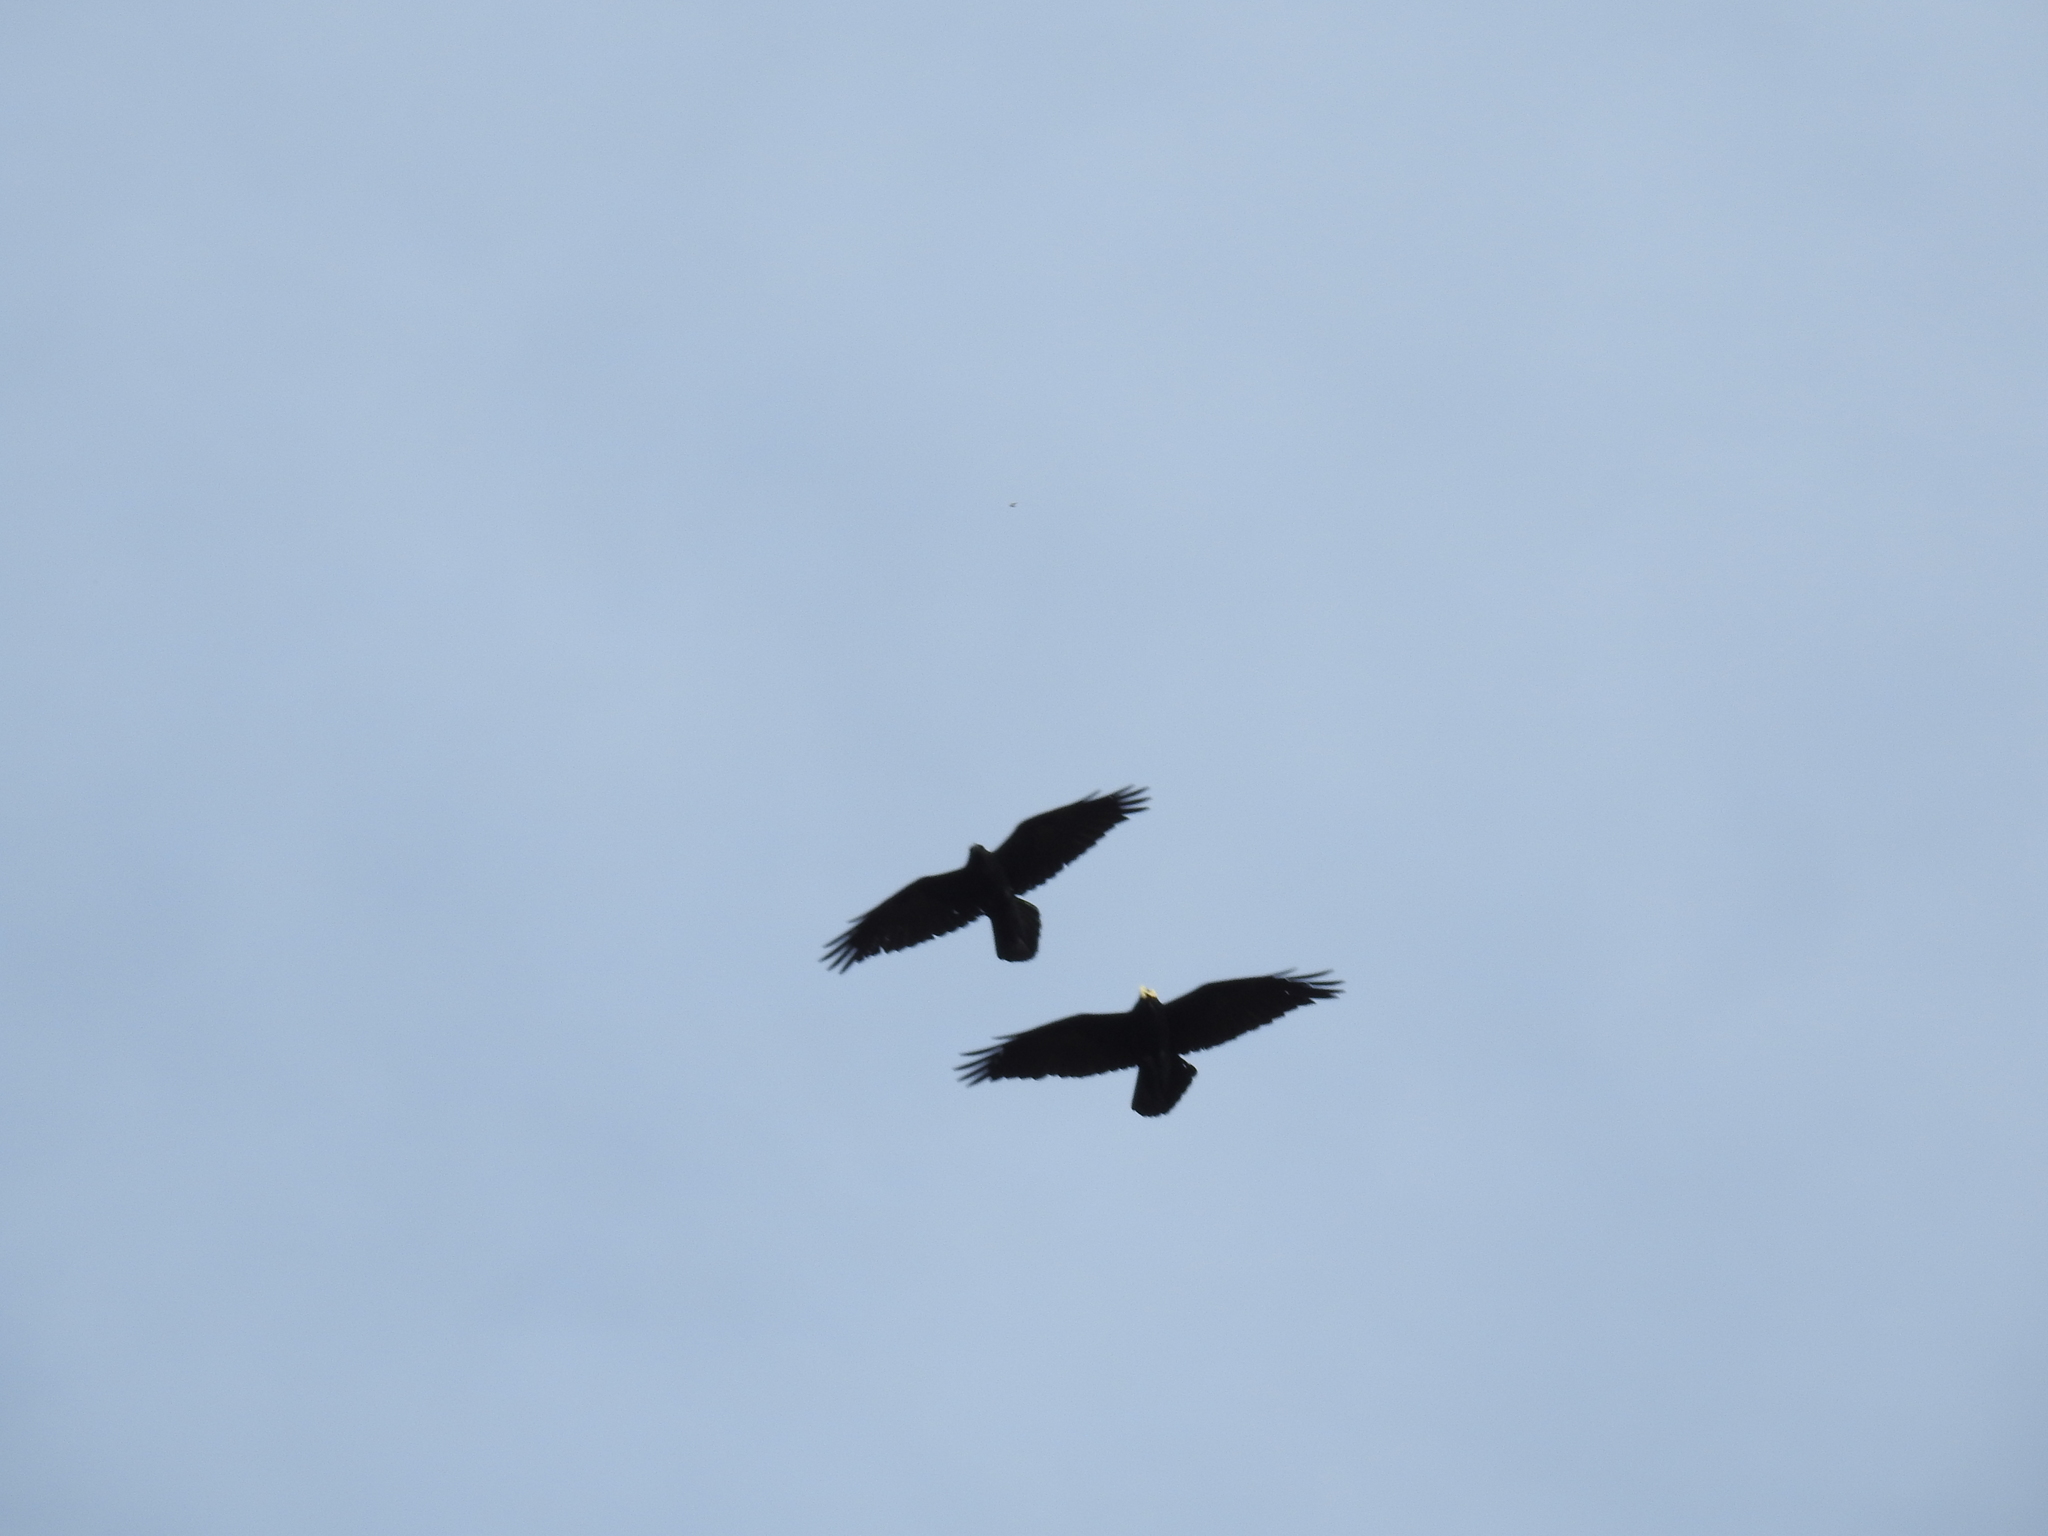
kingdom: Animalia
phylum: Chordata
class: Aves
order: Passeriformes
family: Corvidae
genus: Corvus
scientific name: Corvus corax
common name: Common raven
